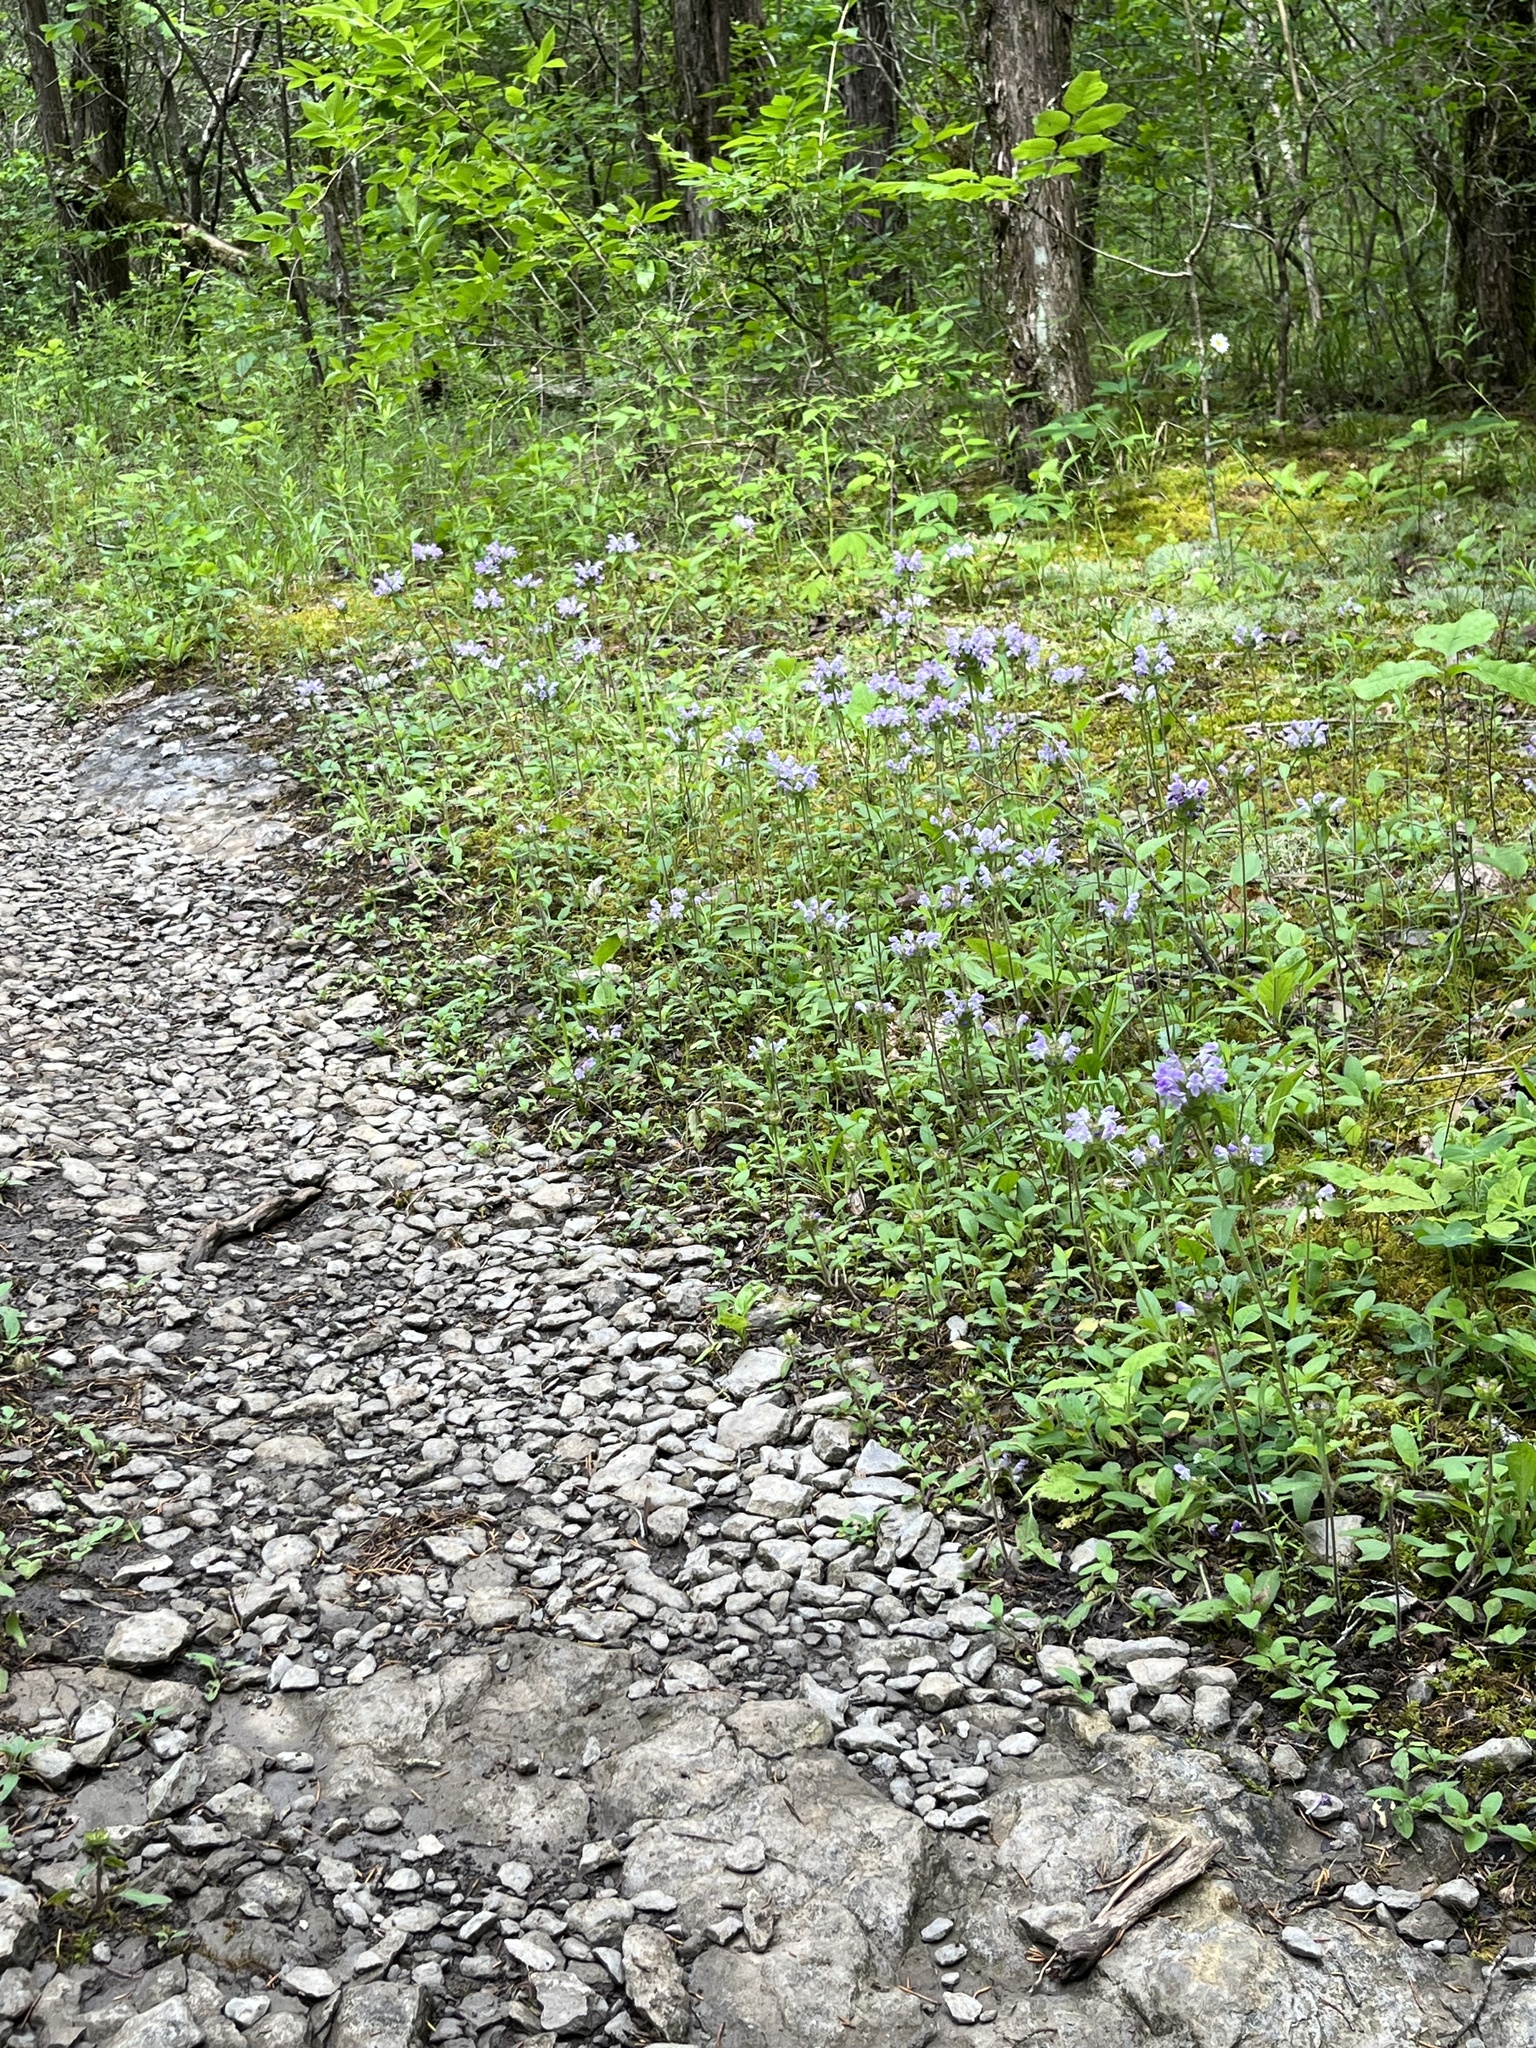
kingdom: Plantae
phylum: Tracheophyta
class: Magnoliopsida
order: Lamiales
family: Lamiaceae
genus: Prunella
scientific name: Prunella vulgaris
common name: Heal-all
